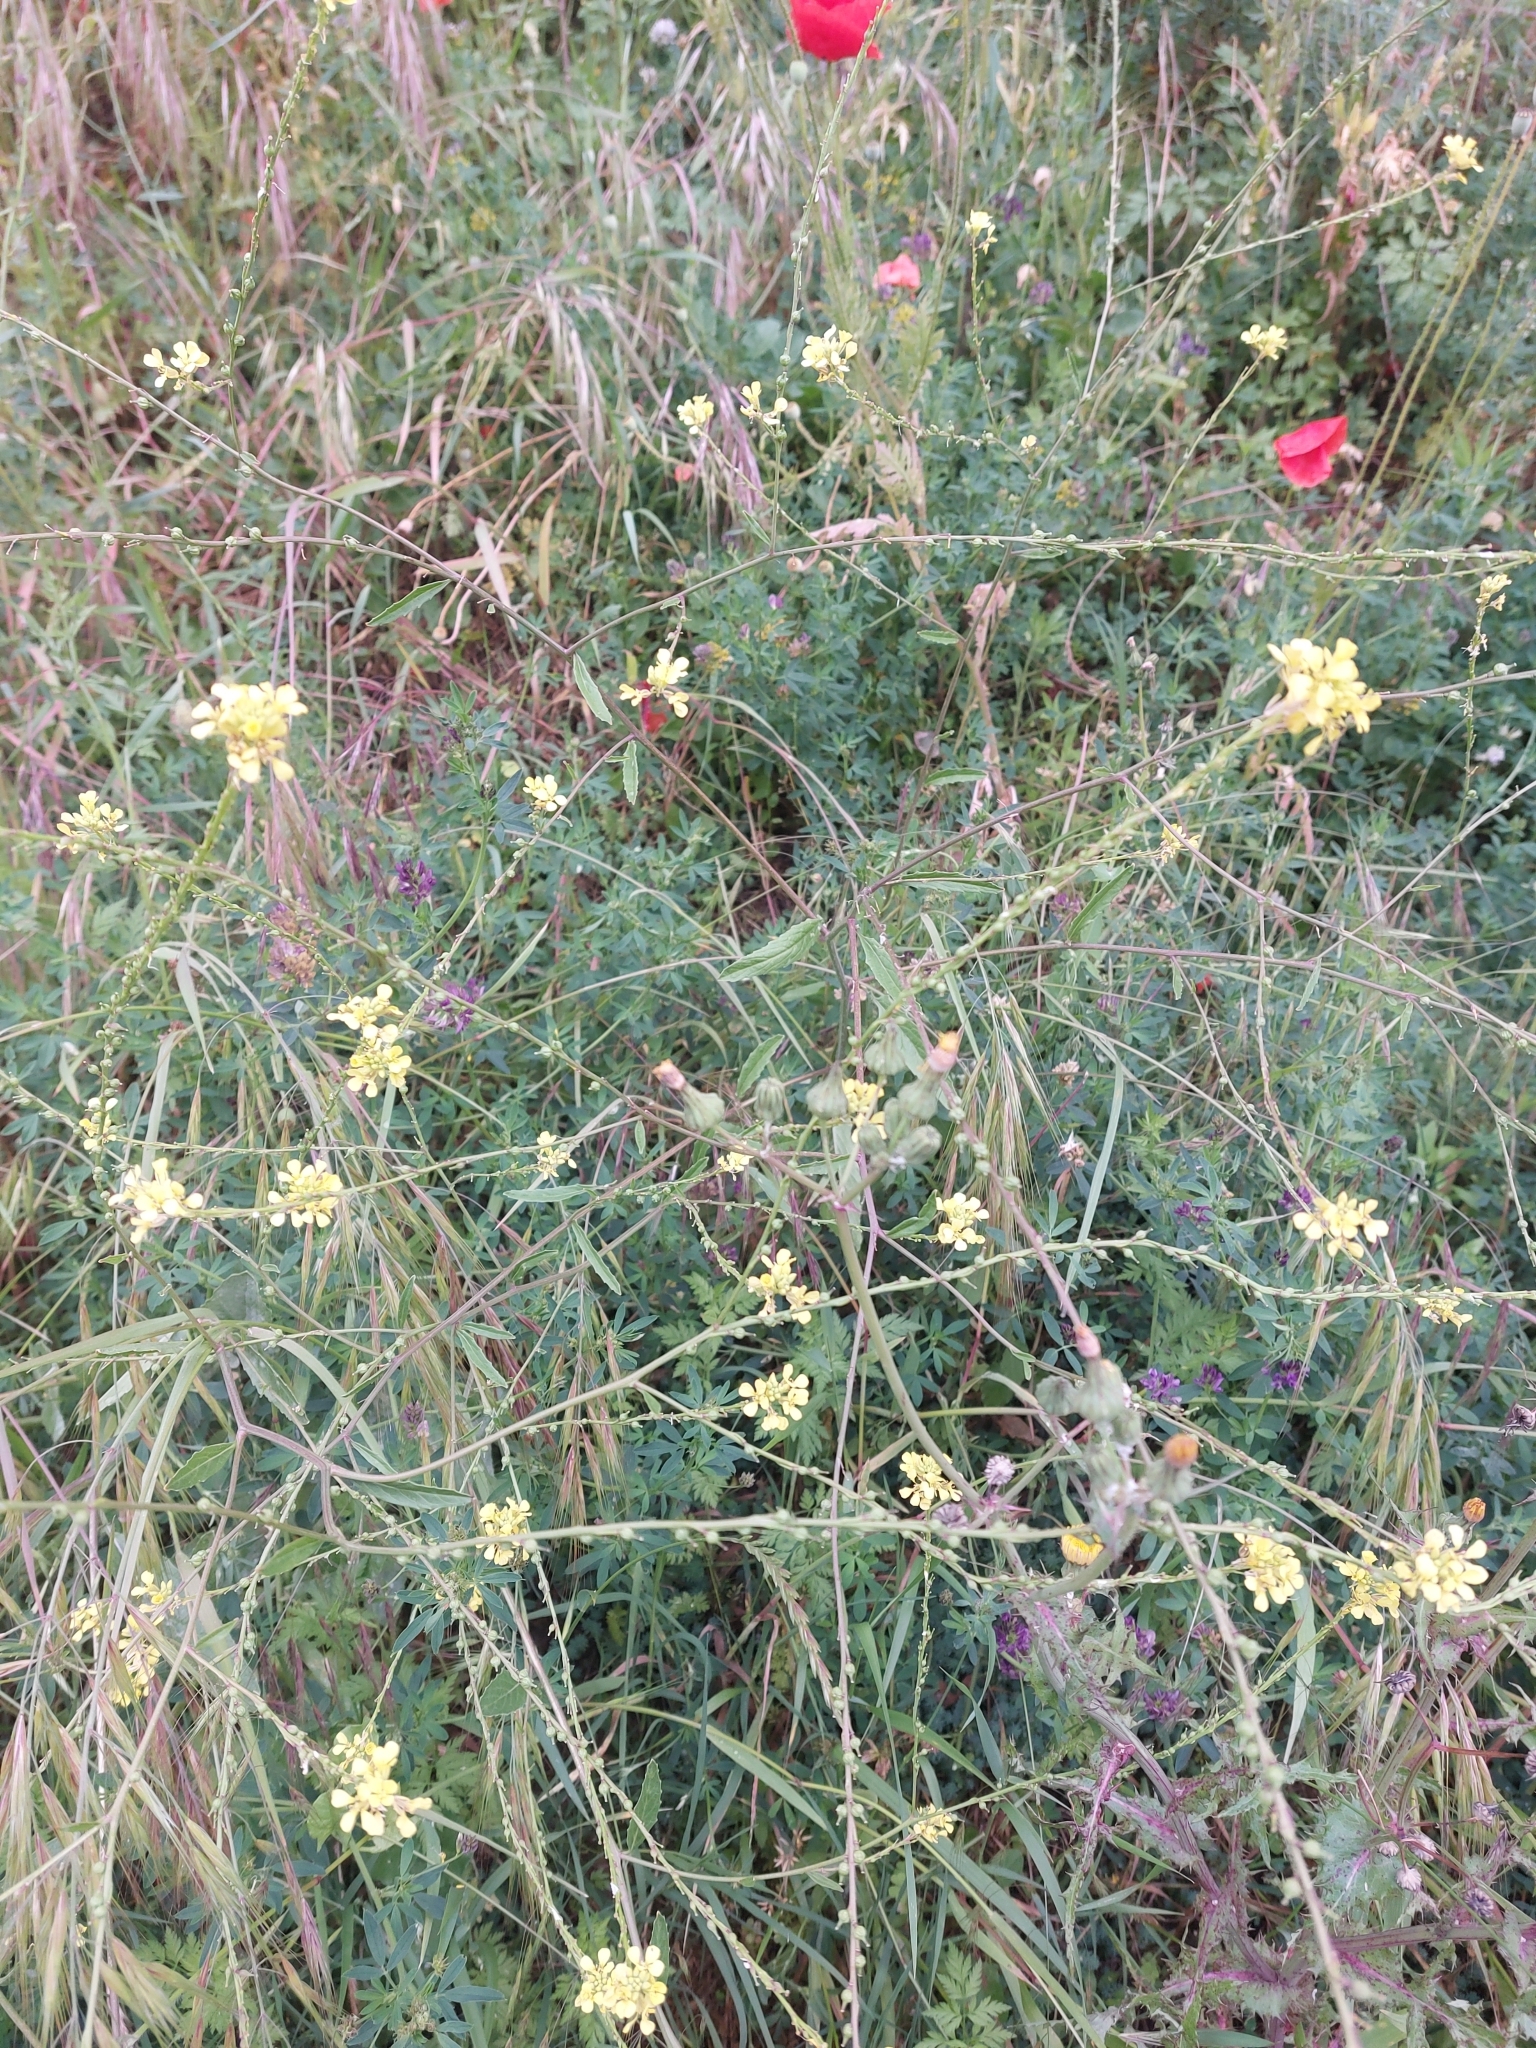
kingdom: Plantae
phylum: Tracheophyta
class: Magnoliopsida
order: Brassicales
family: Brassicaceae
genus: Rapistrum
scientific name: Rapistrum rugosum
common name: Annual bastardcabbage
